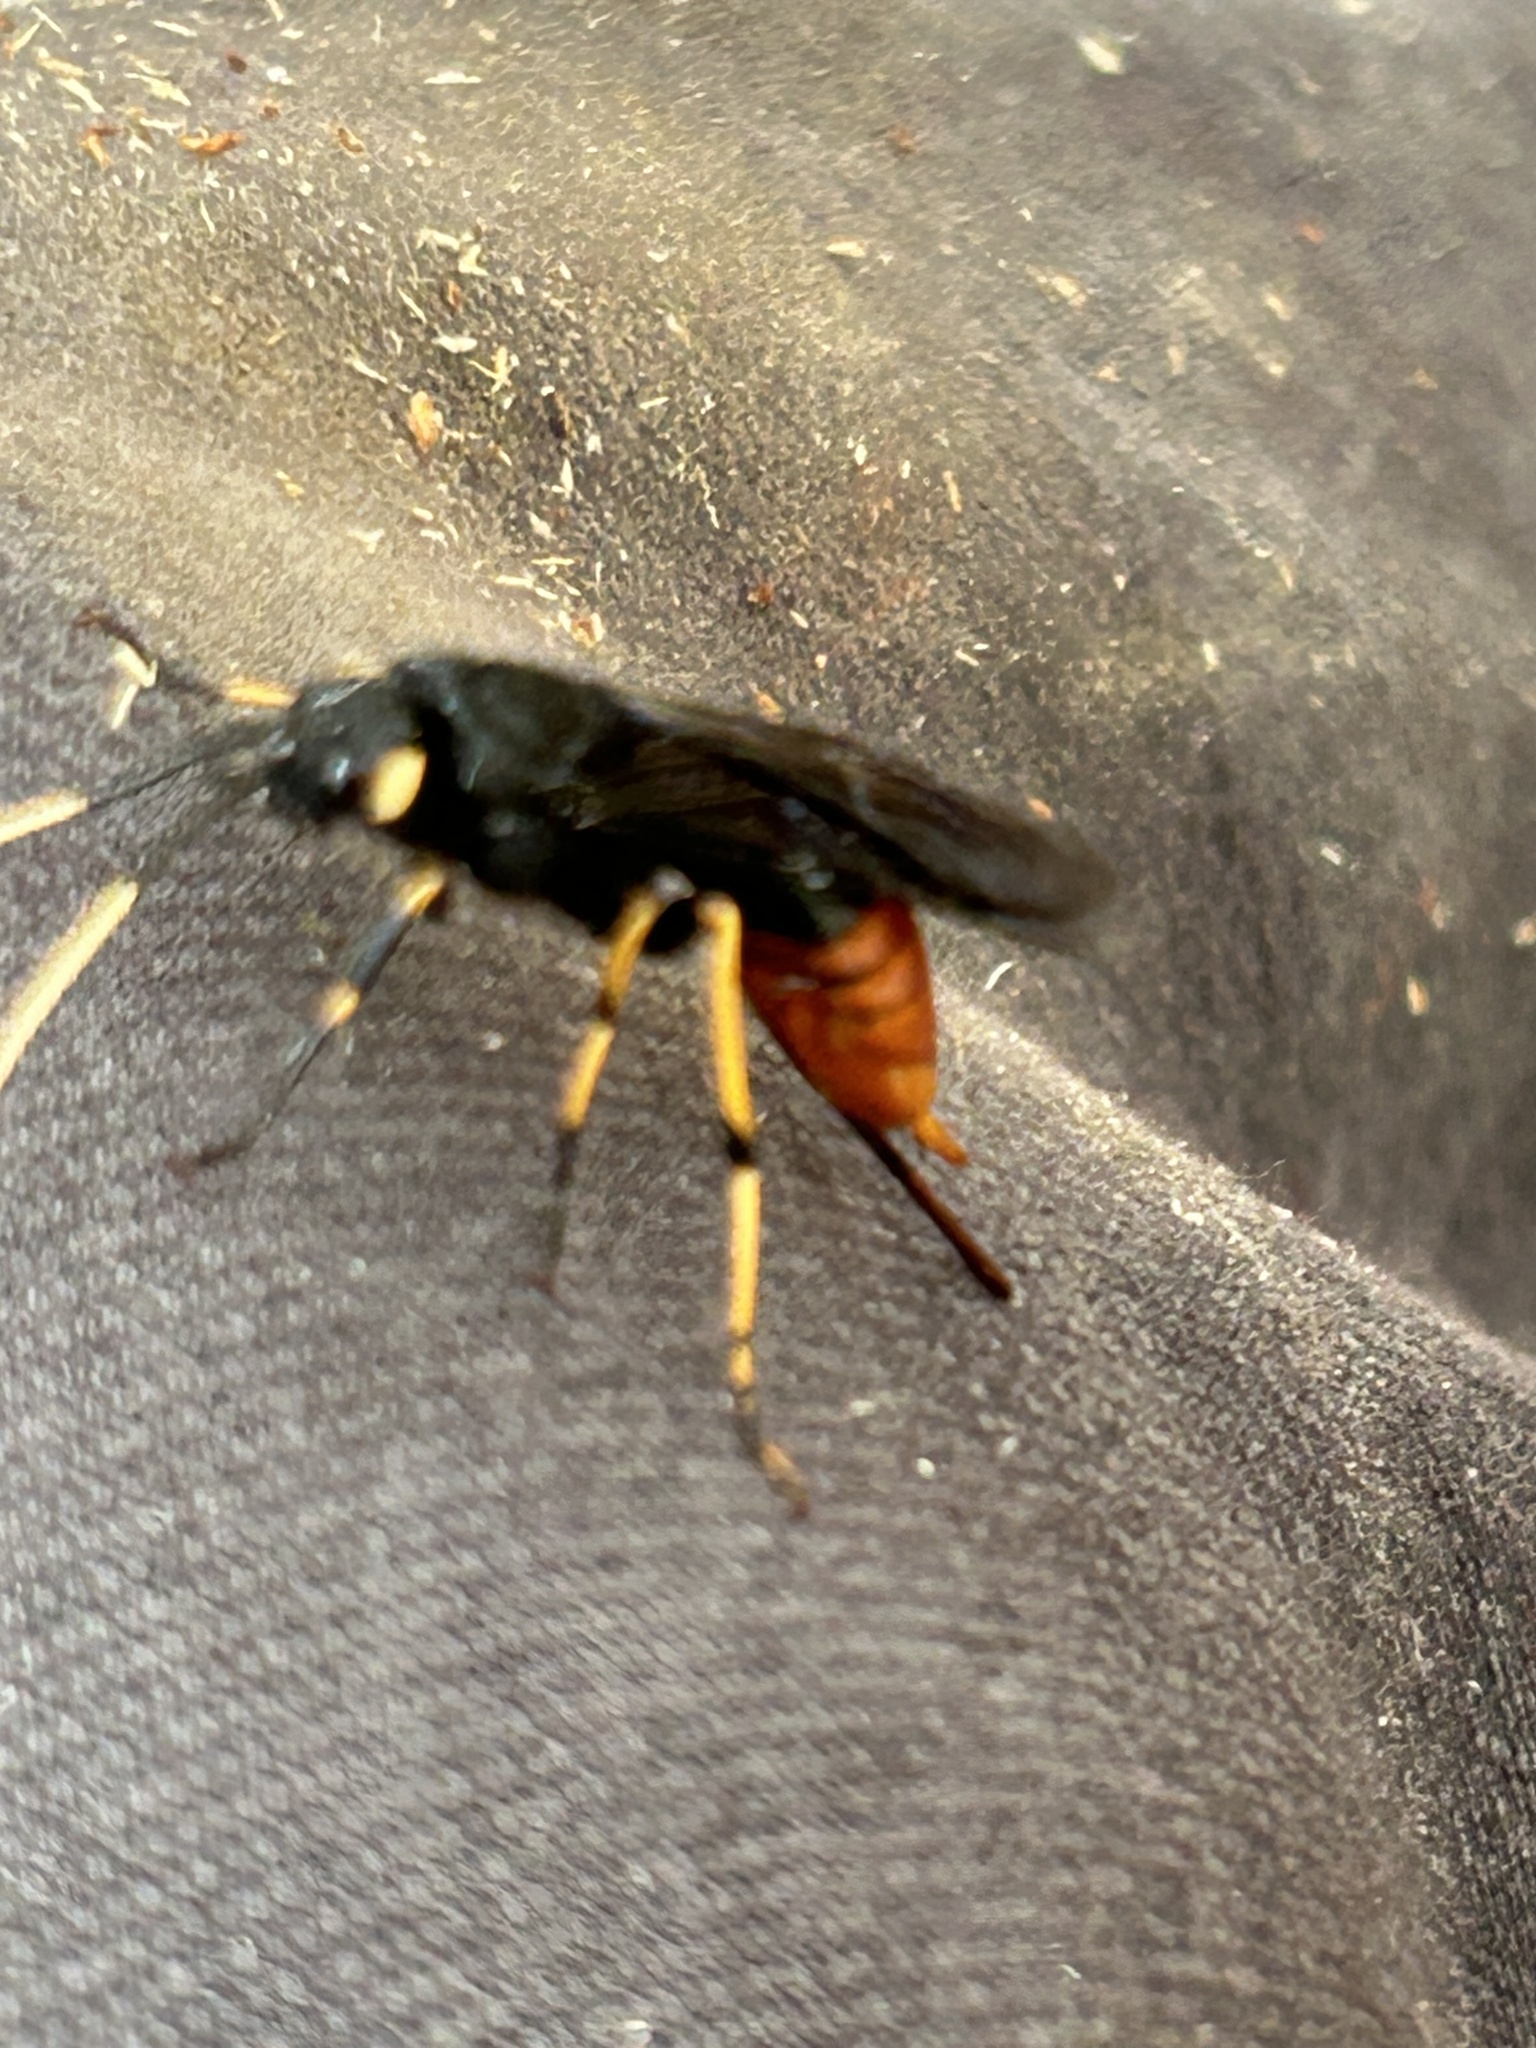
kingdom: Animalia
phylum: Arthropoda
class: Insecta
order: Hymenoptera
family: Siricidae
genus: Urocerus
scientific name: Urocerus cressoni
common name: Black-and-red horntail
